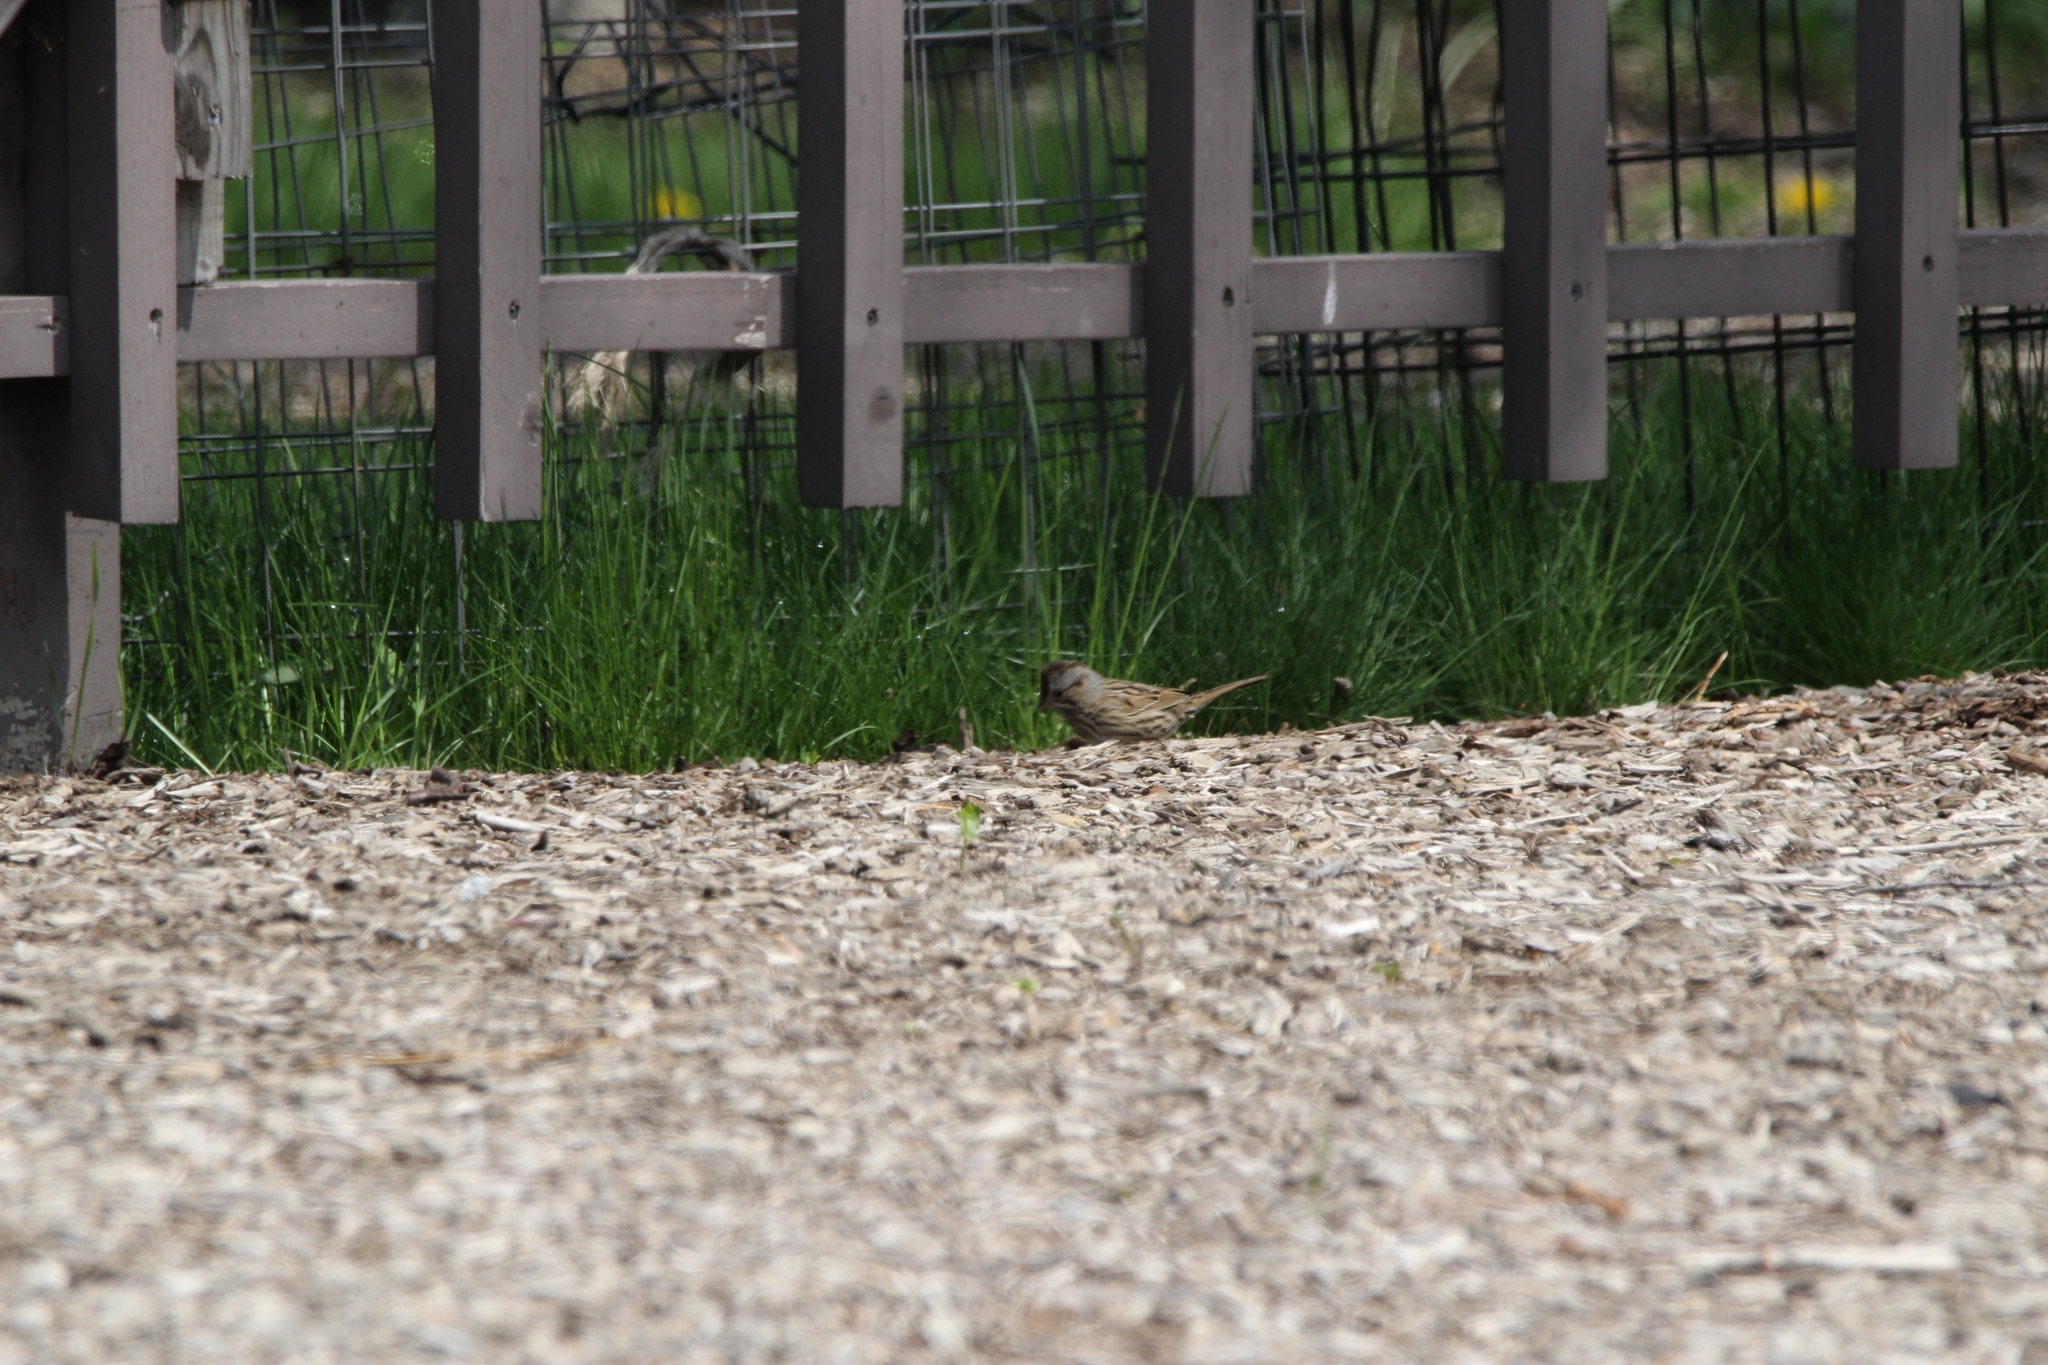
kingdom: Animalia
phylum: Chordata
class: Aves
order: Passeriformes
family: Passerellidae
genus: Melospiza
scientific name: Melospiza lincolnii
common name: Lincoln's sparrow
